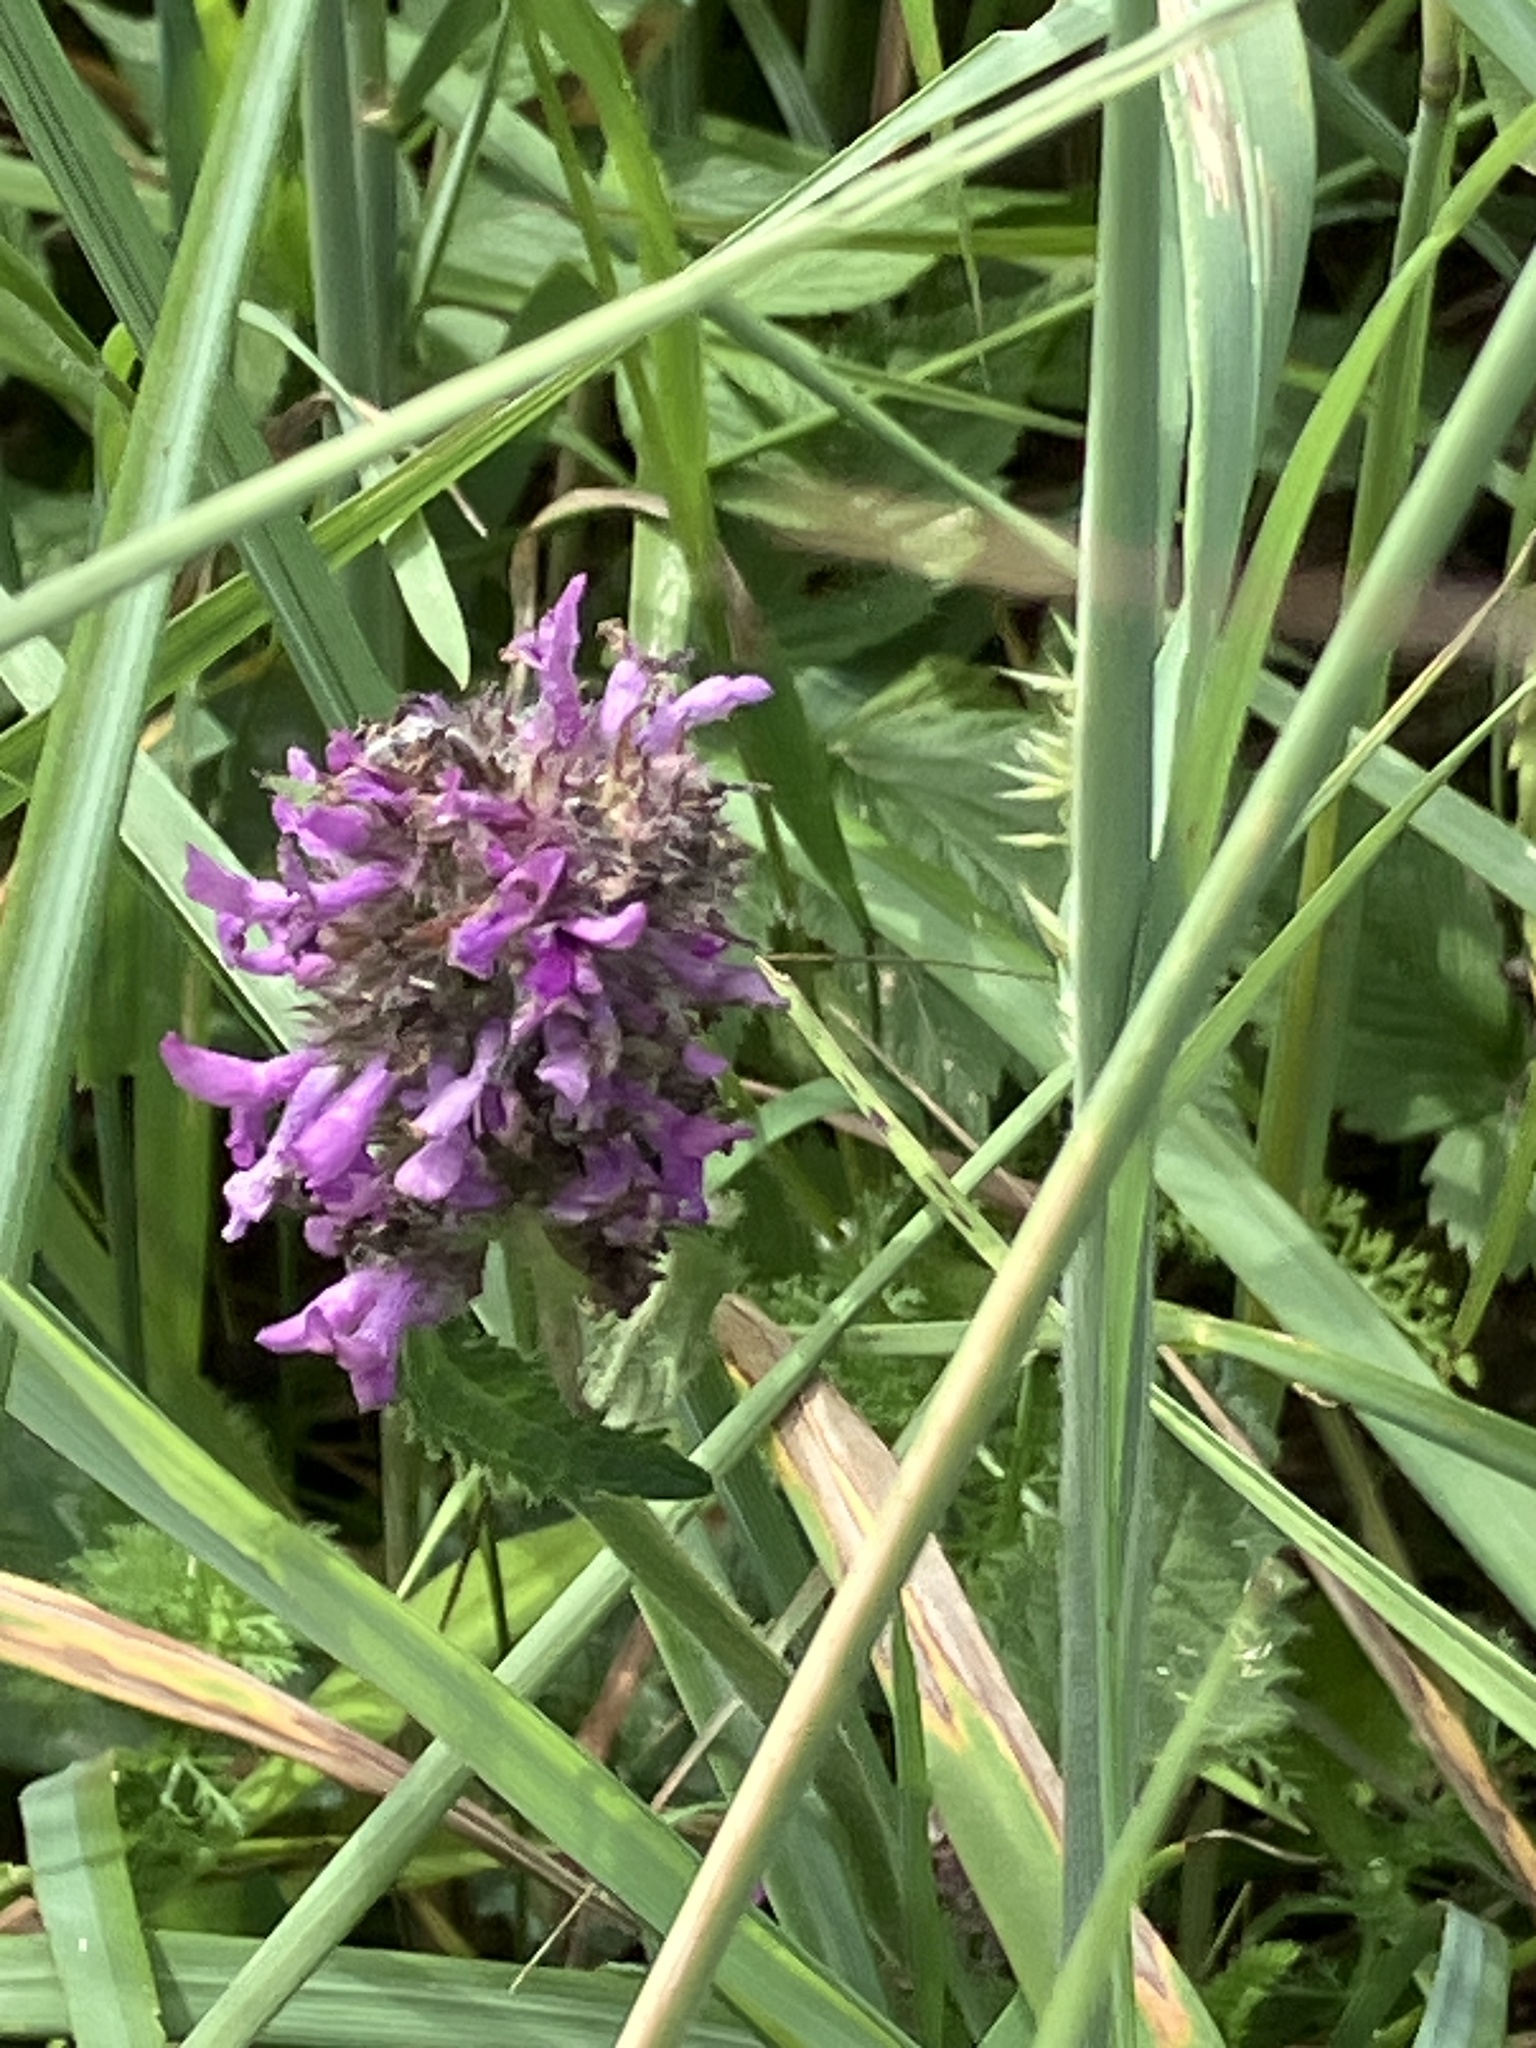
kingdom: Plantae
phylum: Tracheophyta
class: Magnoliopsida
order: Lamiales
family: Lamiaceae
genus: Betonica
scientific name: Betonica officinalis
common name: Bishop's-wort
